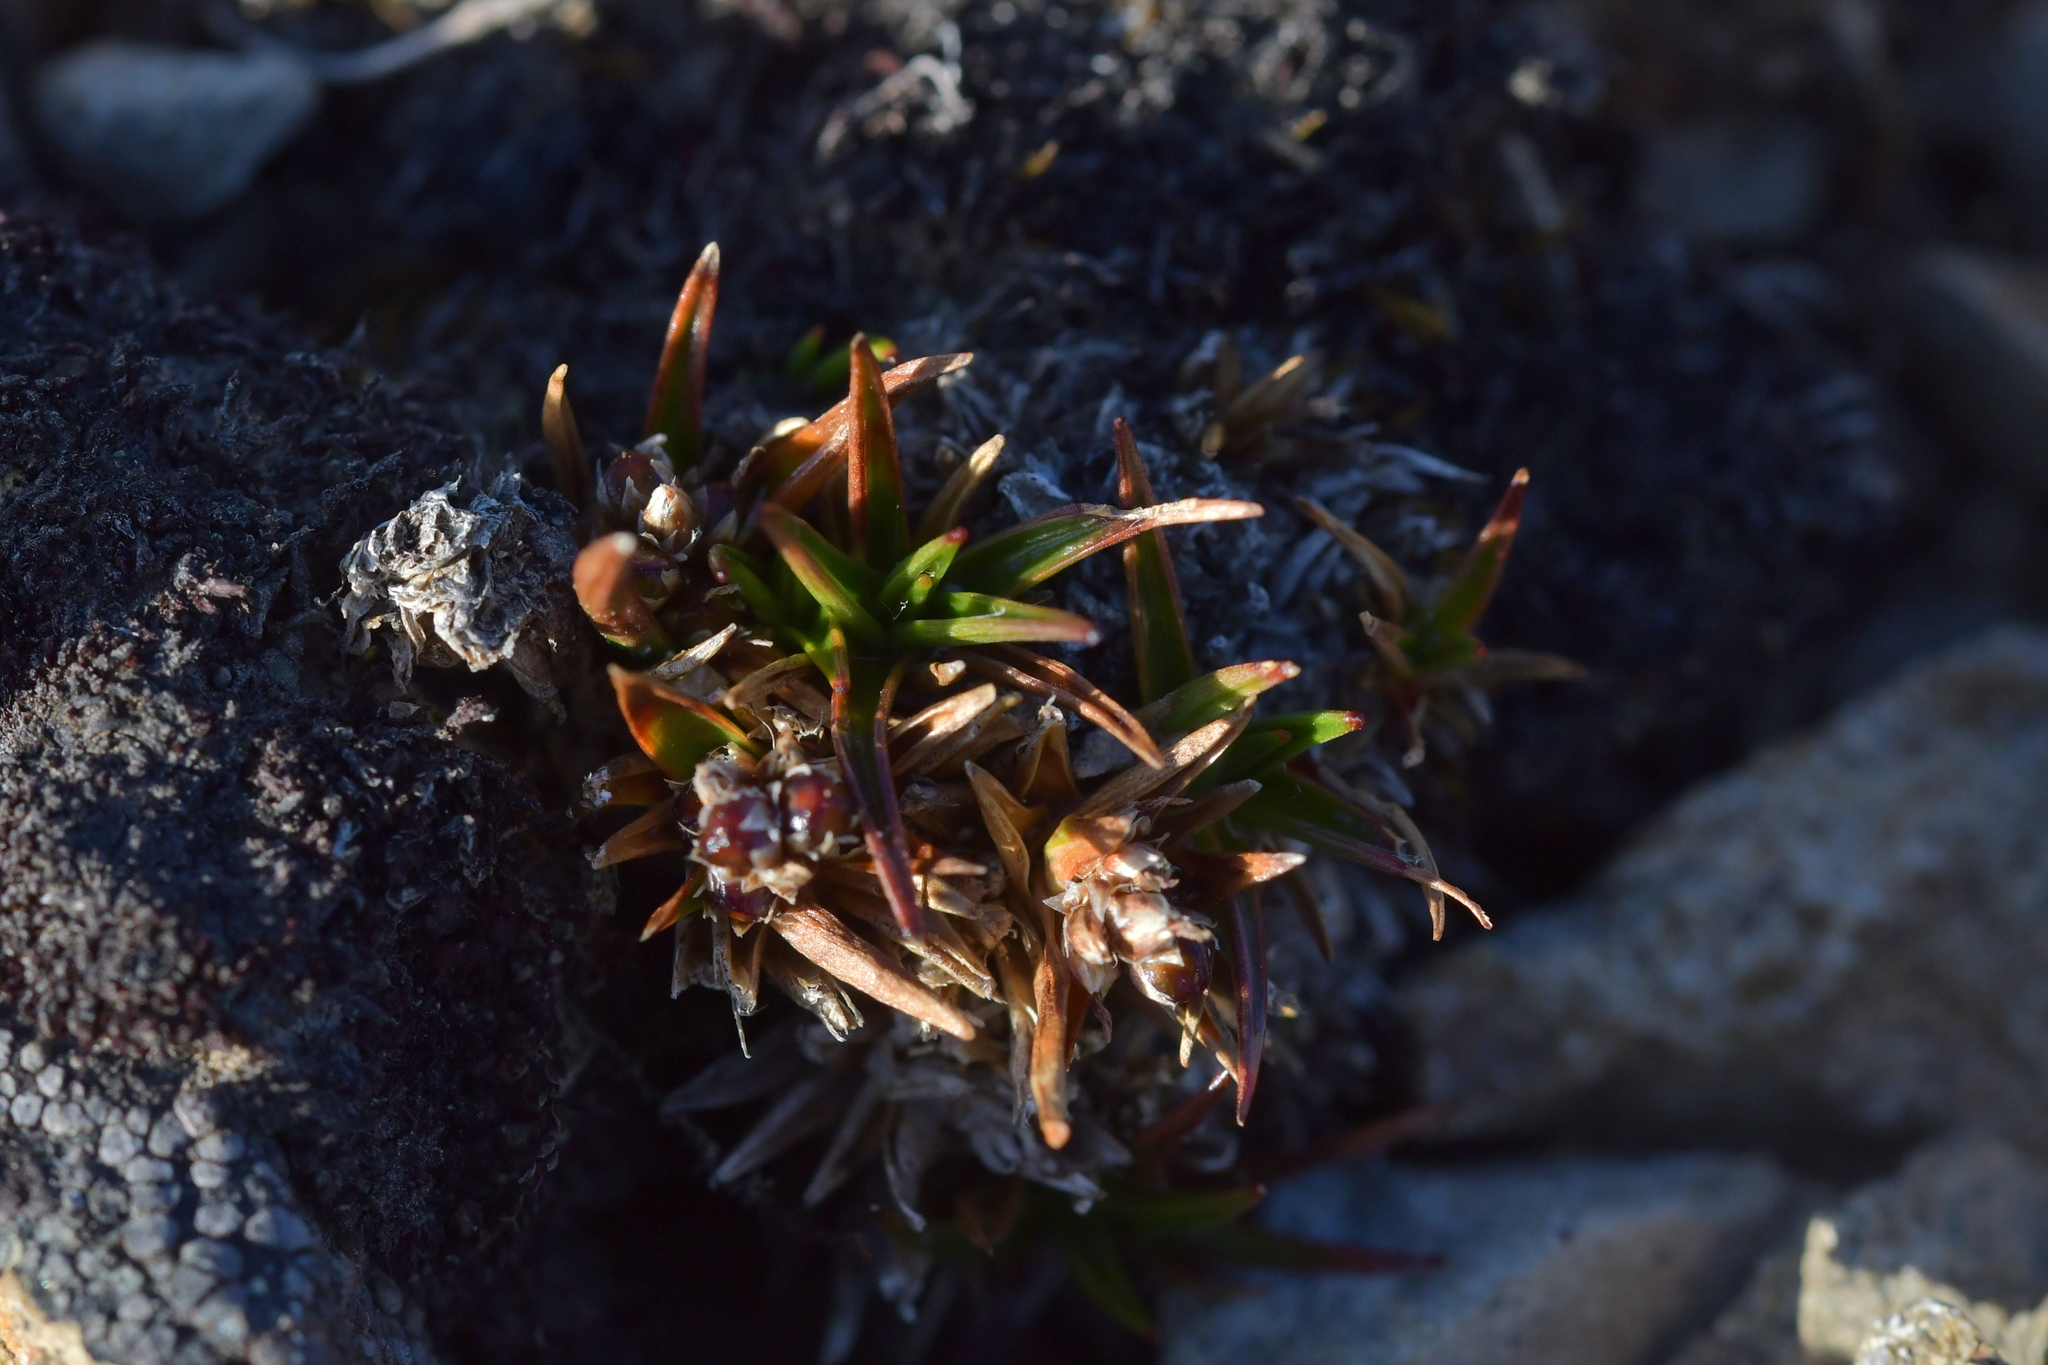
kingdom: Plantae
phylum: Tracheophyta
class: Liliopsida
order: Poales
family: Juncaceae
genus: Luzula
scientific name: Luzula colensoi
